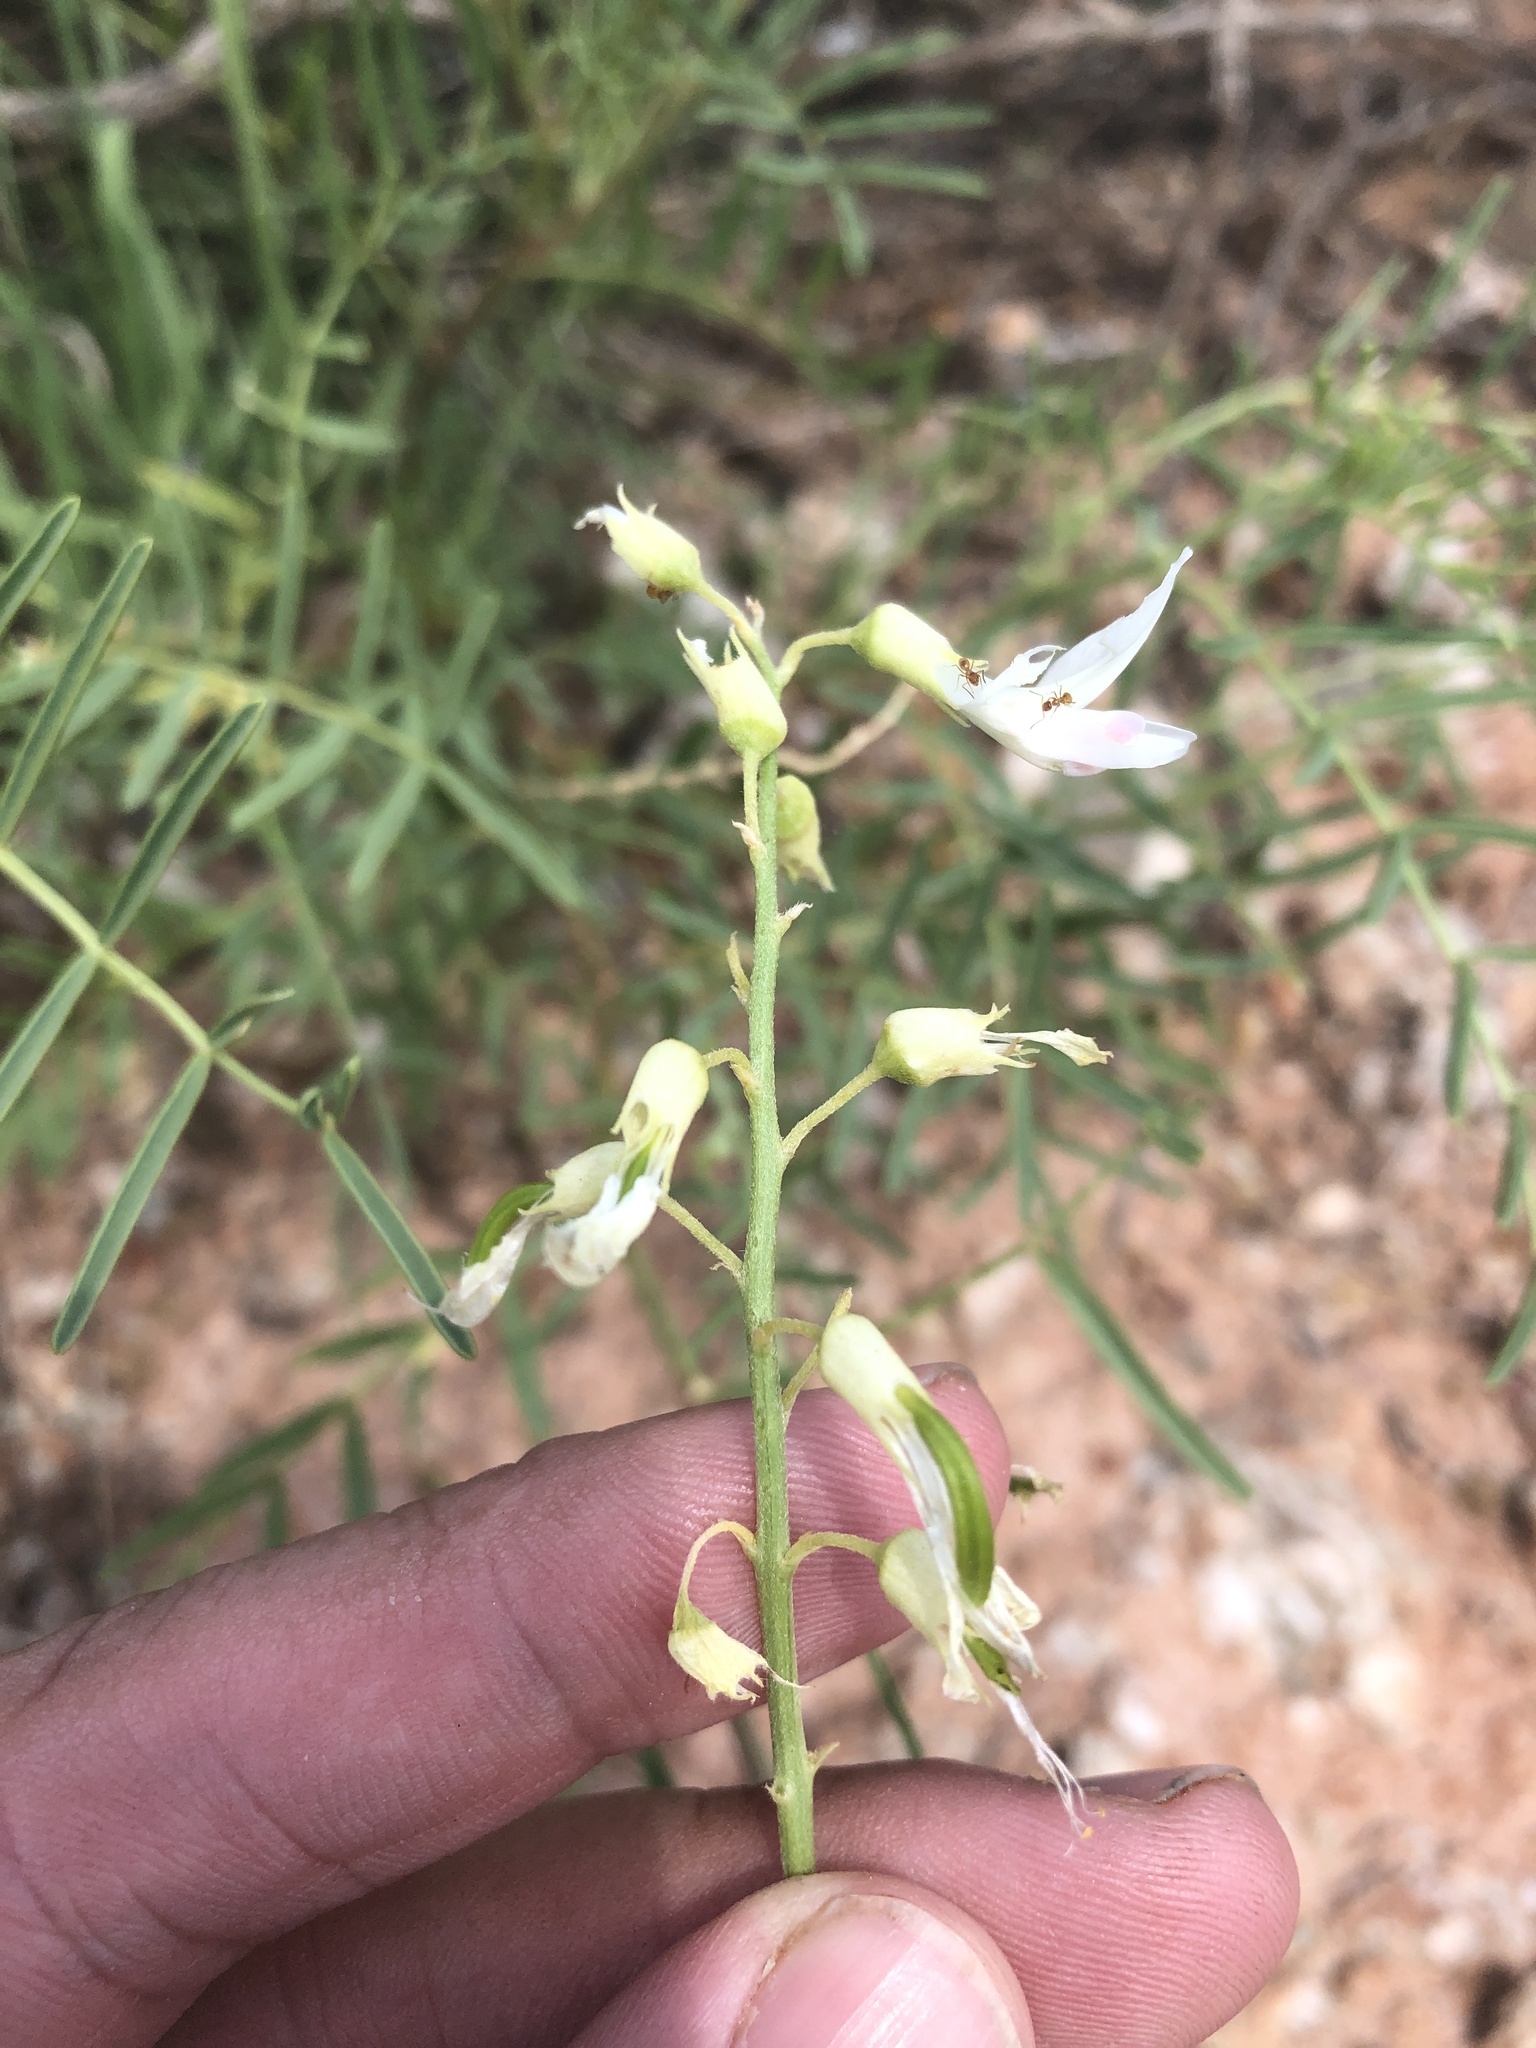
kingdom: Plantae
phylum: Tracheophyta
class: Magnoliopsida
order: Fabales
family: Fabaceae
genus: Astragalus
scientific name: Astragalus racemosus
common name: Alkali milk-vetch
